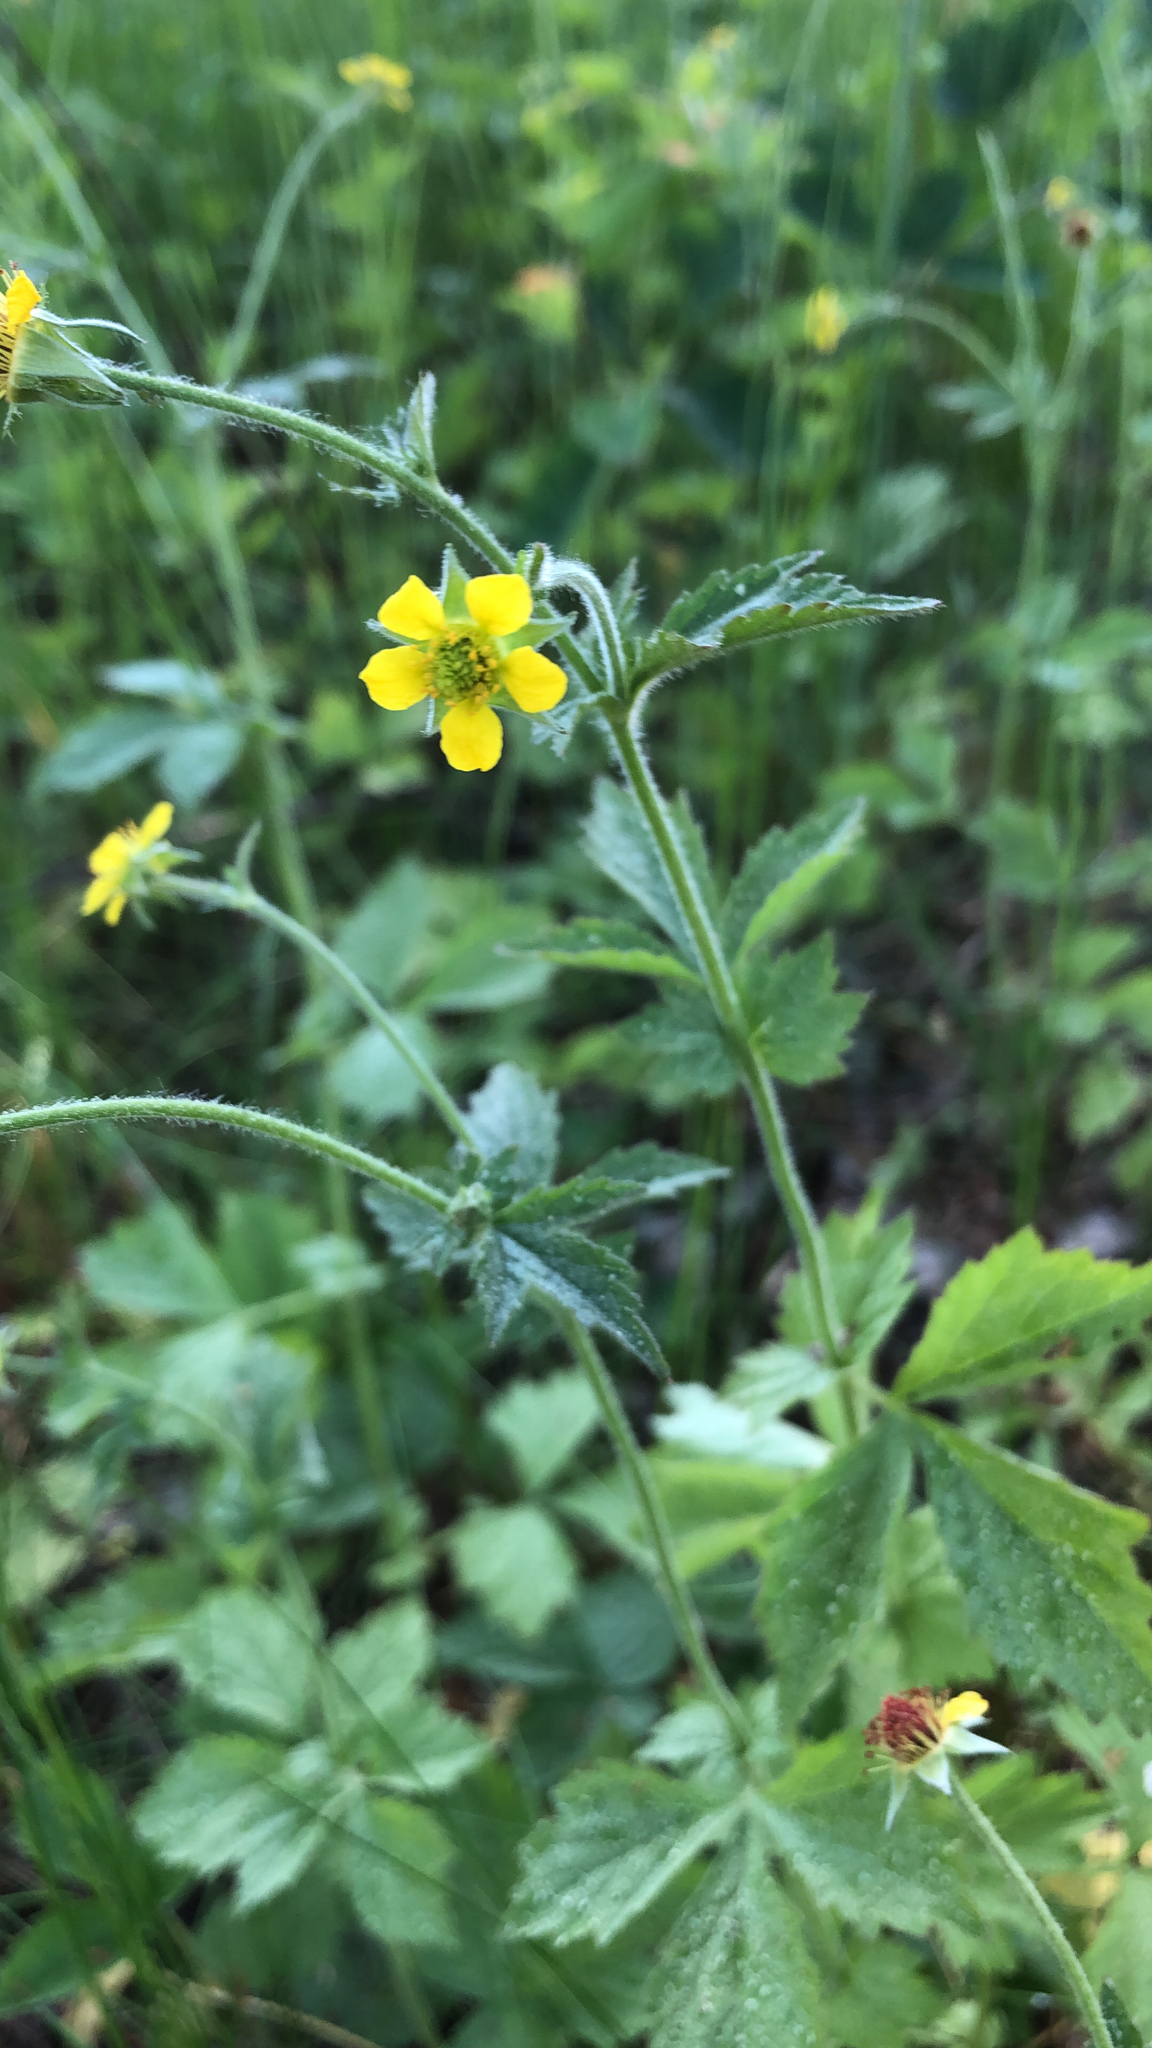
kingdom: Plantae
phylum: Tracheophyta
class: Magnoliopsida
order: Rosales
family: Rosaceae
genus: Geum
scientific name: Geum urbanum
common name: Wood avens
